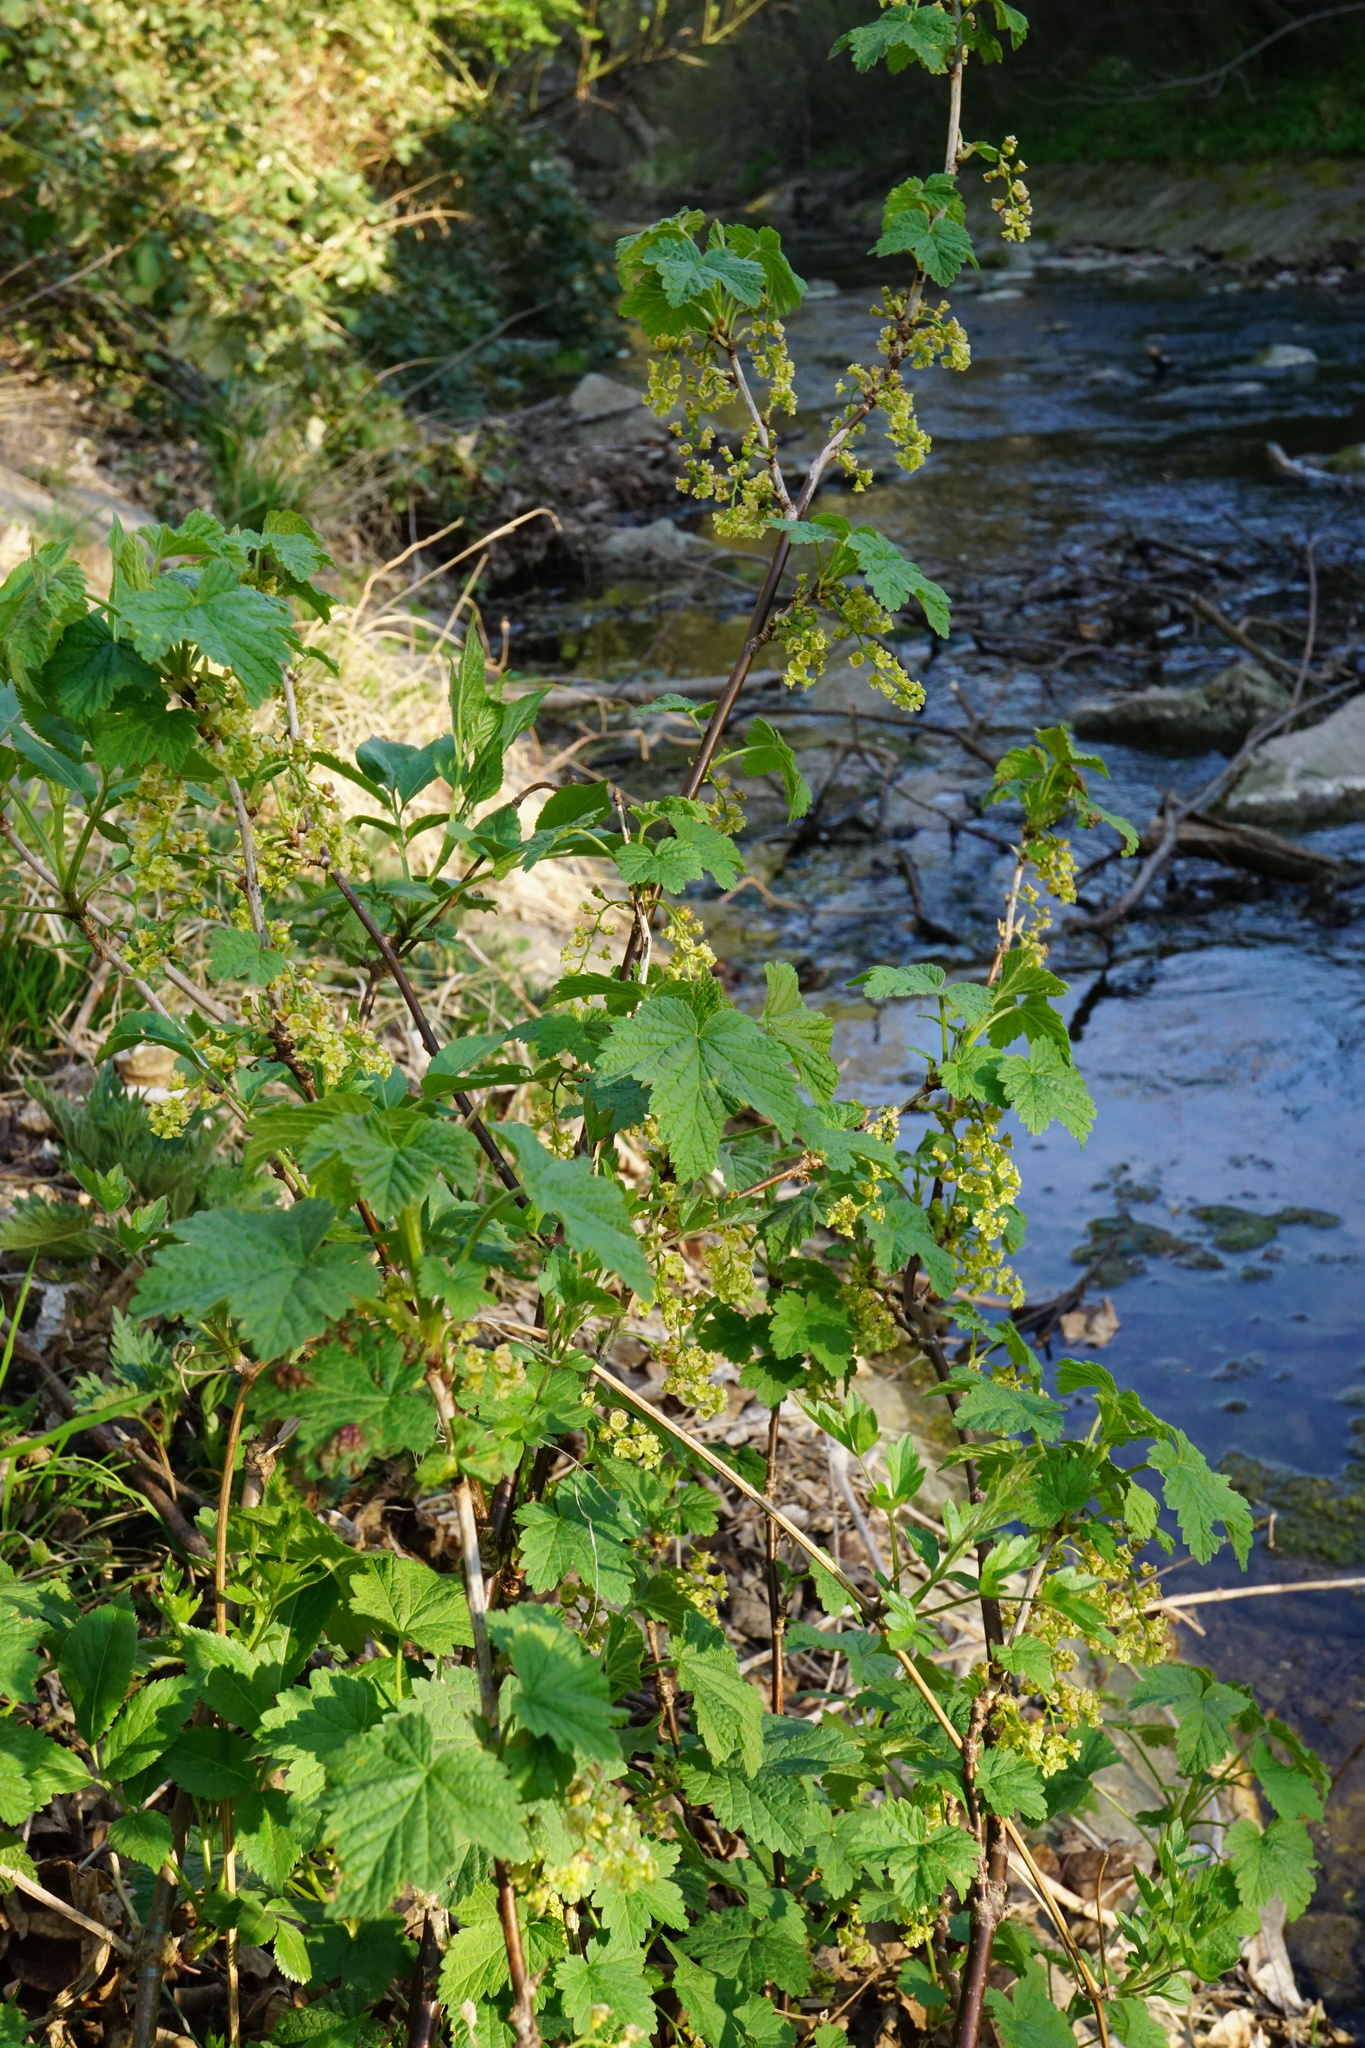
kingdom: Plantae
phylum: Tracheophyta
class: Magnoliopsida
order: Saxifragales
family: Grossulariaceae
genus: Ribes
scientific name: Ribes rubrum
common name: Red currant
